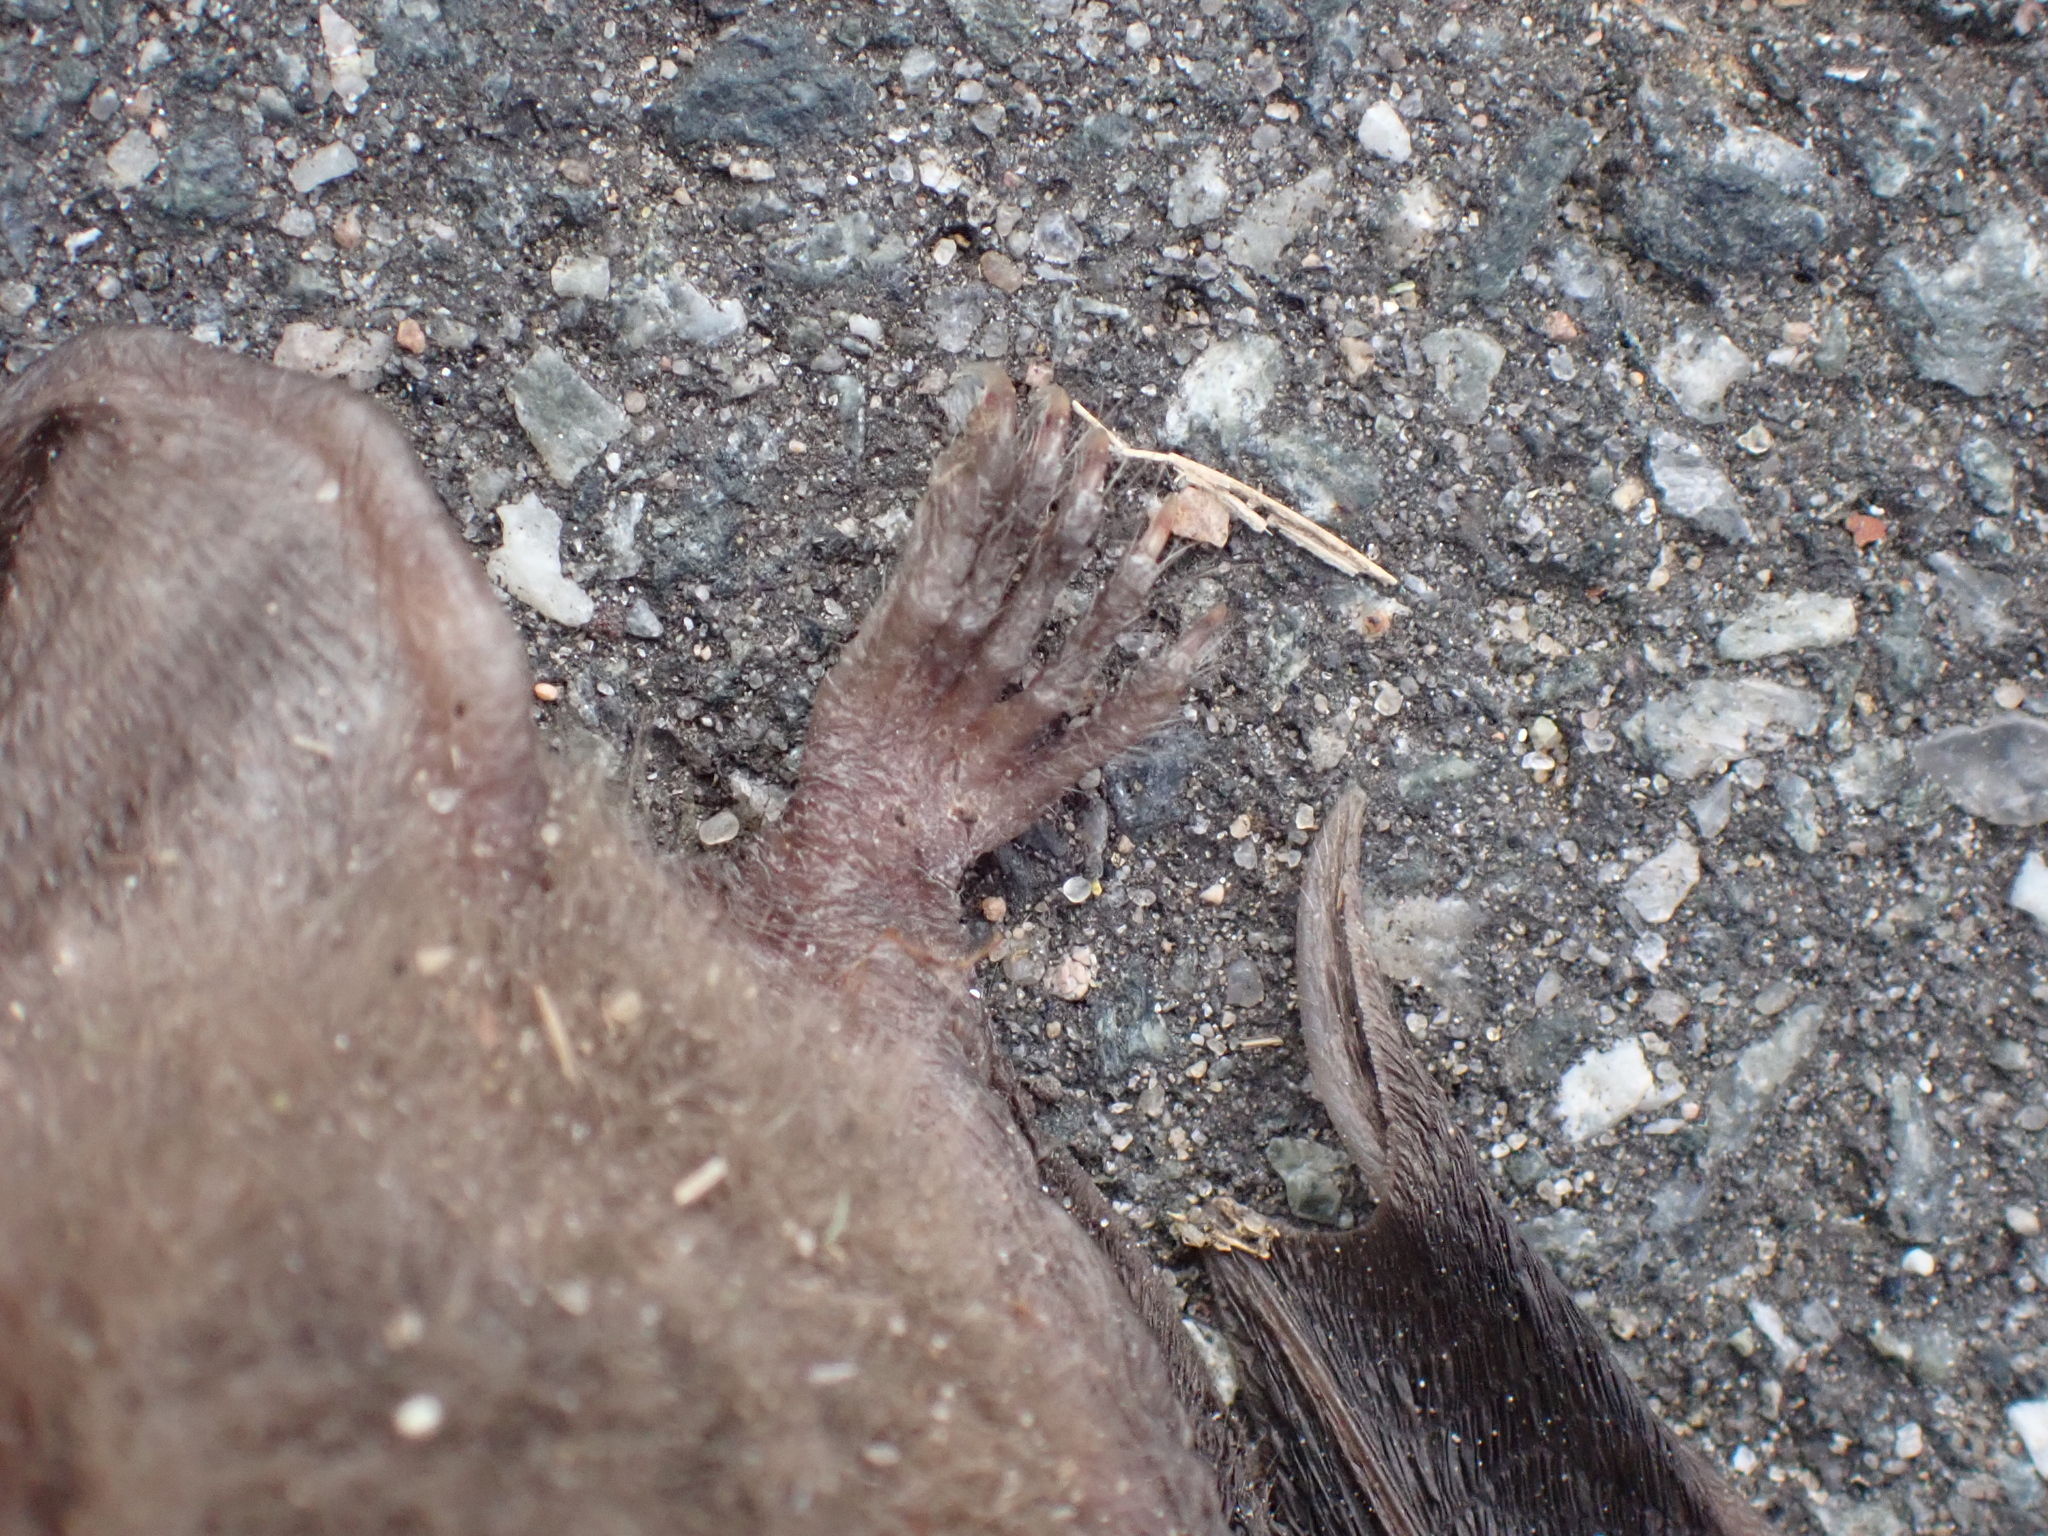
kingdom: Animalia
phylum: Chordata
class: Mammalia
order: Chiroptera
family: Vespertilionidae
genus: Myotis
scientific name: Myotis daubentonii
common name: Daubenton's myotis
